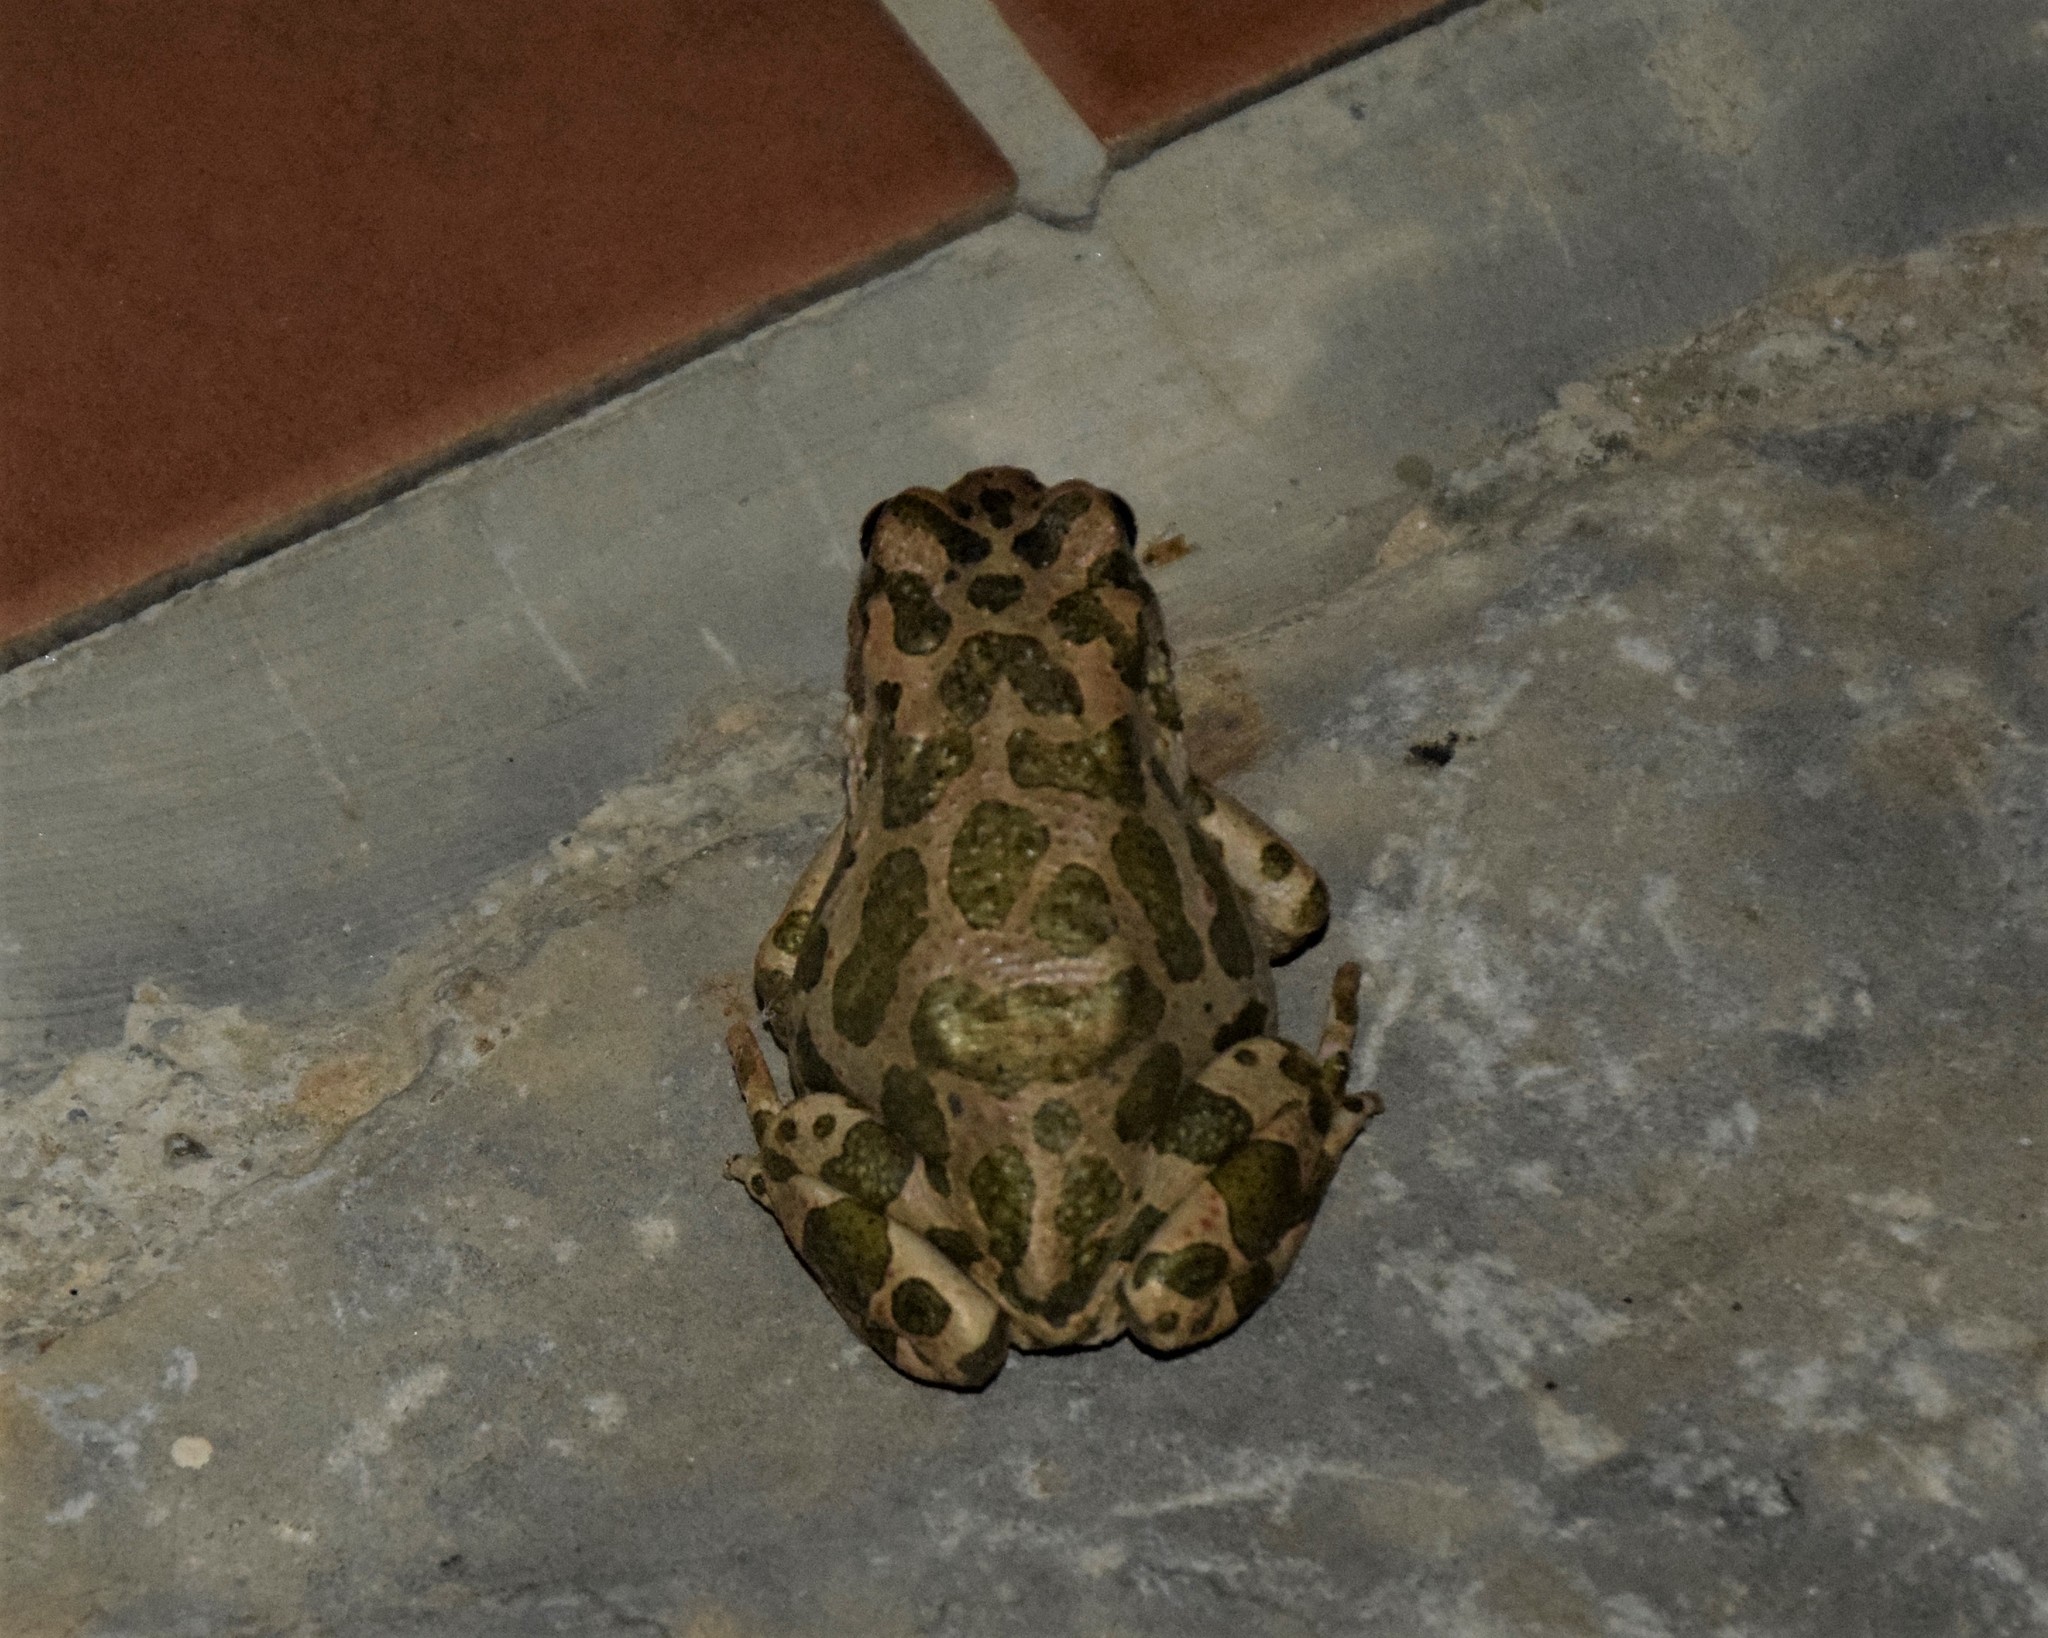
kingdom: Animalia
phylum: Chordata
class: Amphibia
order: Anura
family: Bufonidae
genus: Bufotes
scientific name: Bufotes viridis
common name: European green toad
